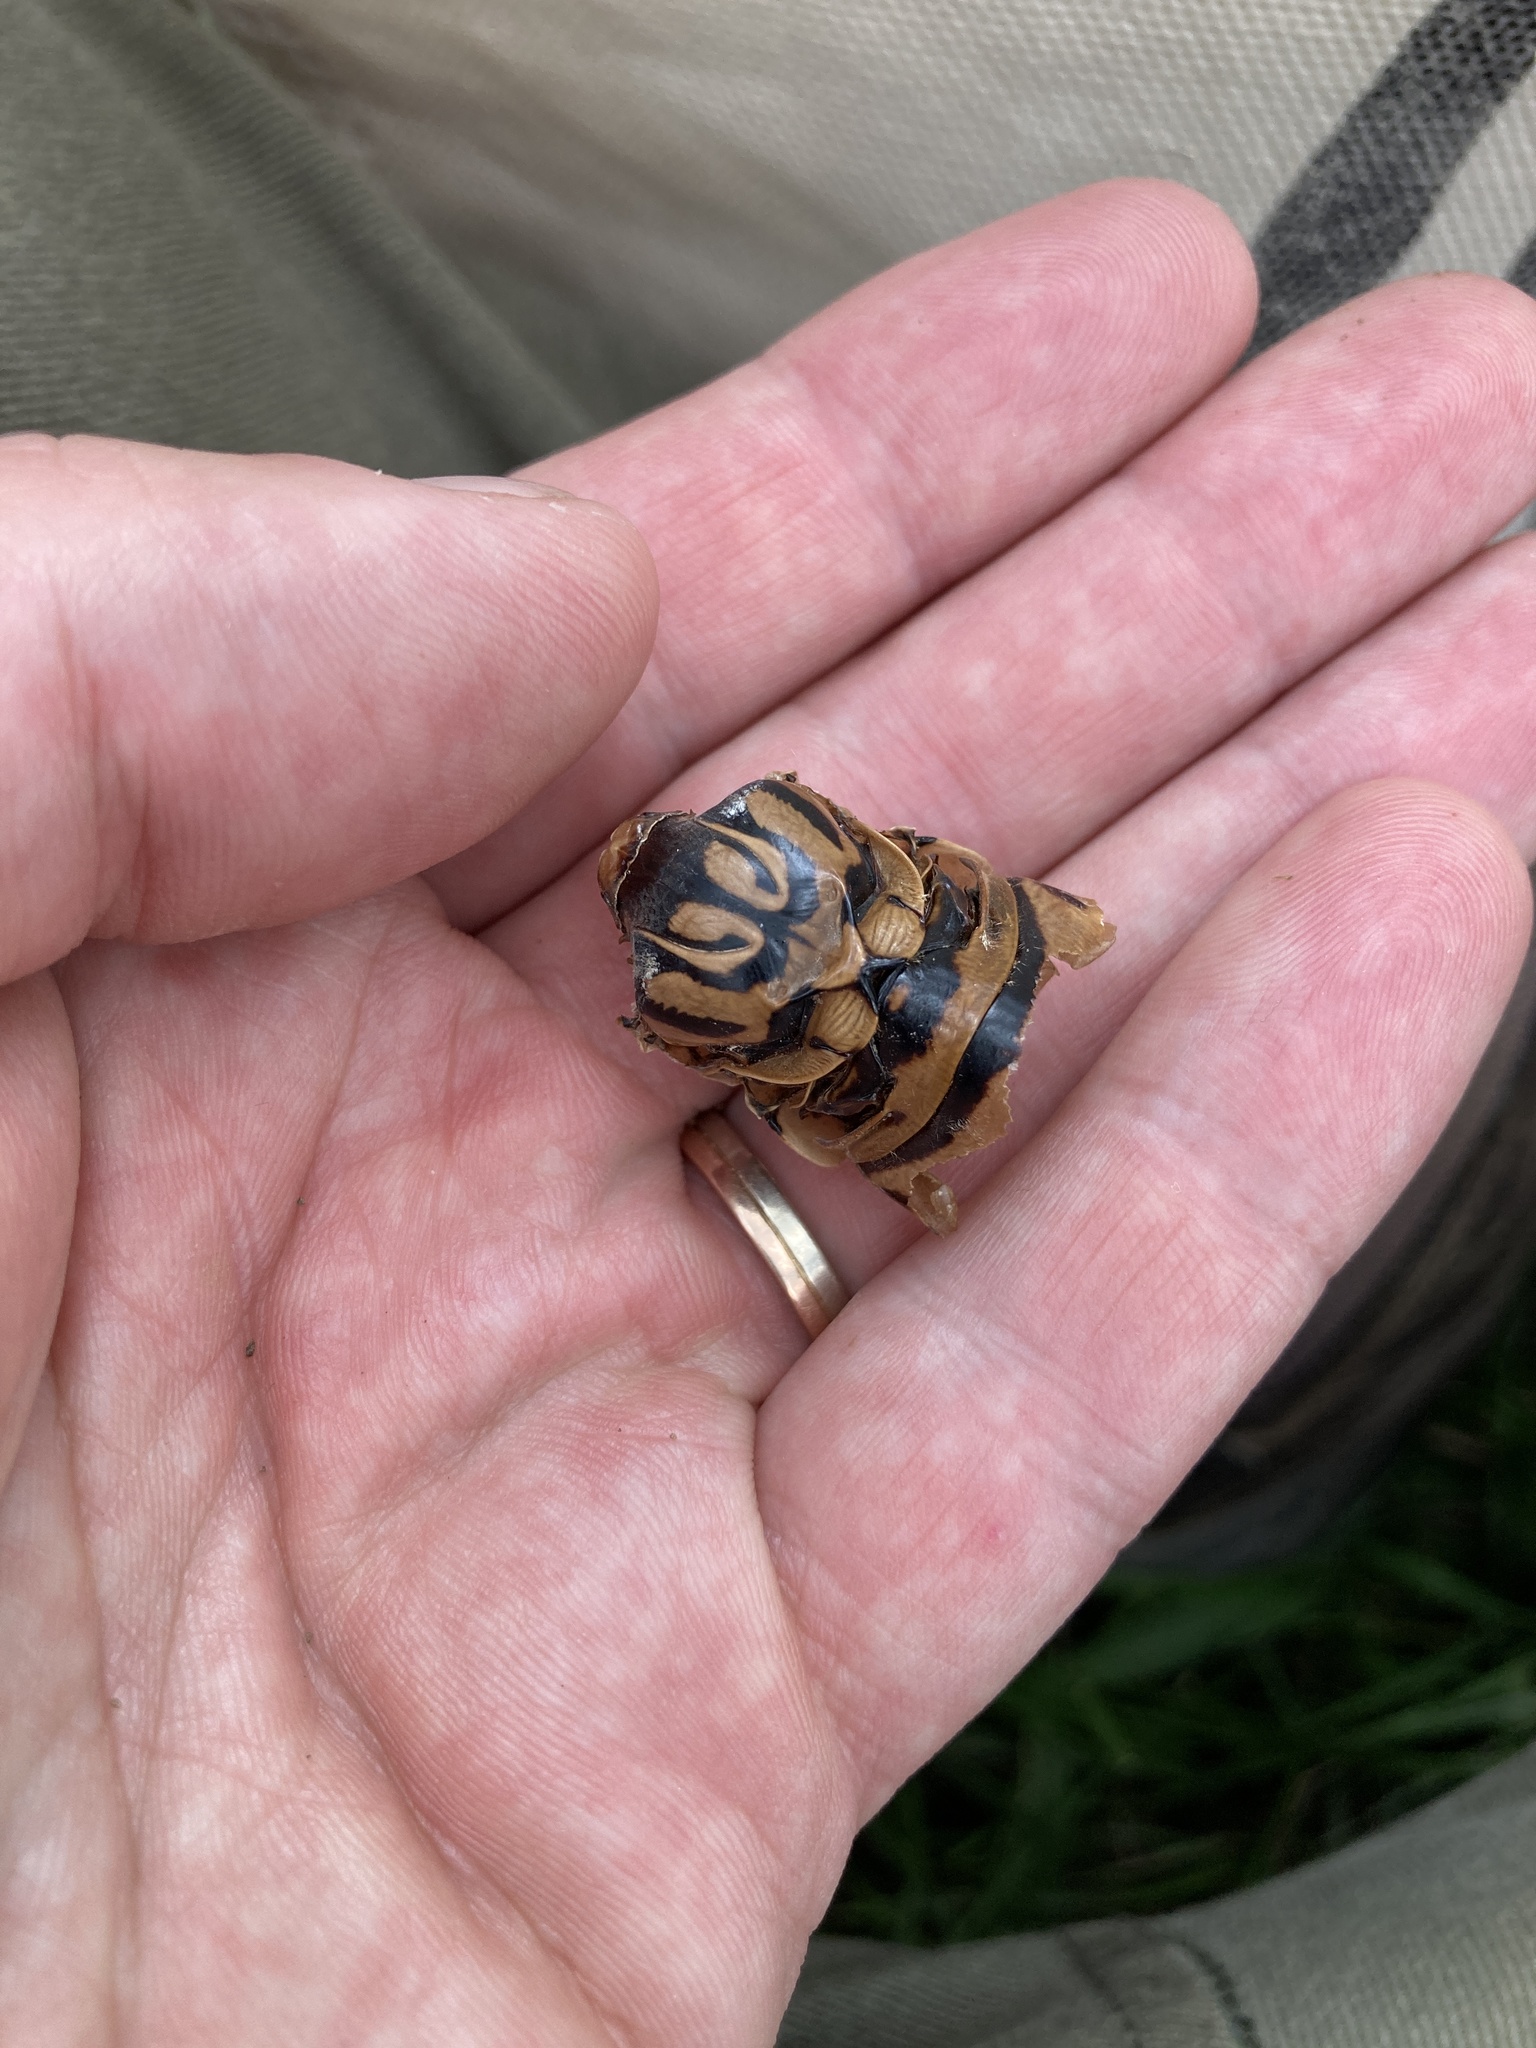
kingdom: Animalia
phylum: Arthropoda
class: Insecta
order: Hemiptera
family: Cicadidae
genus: Quesada
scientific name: Quesada gigas
